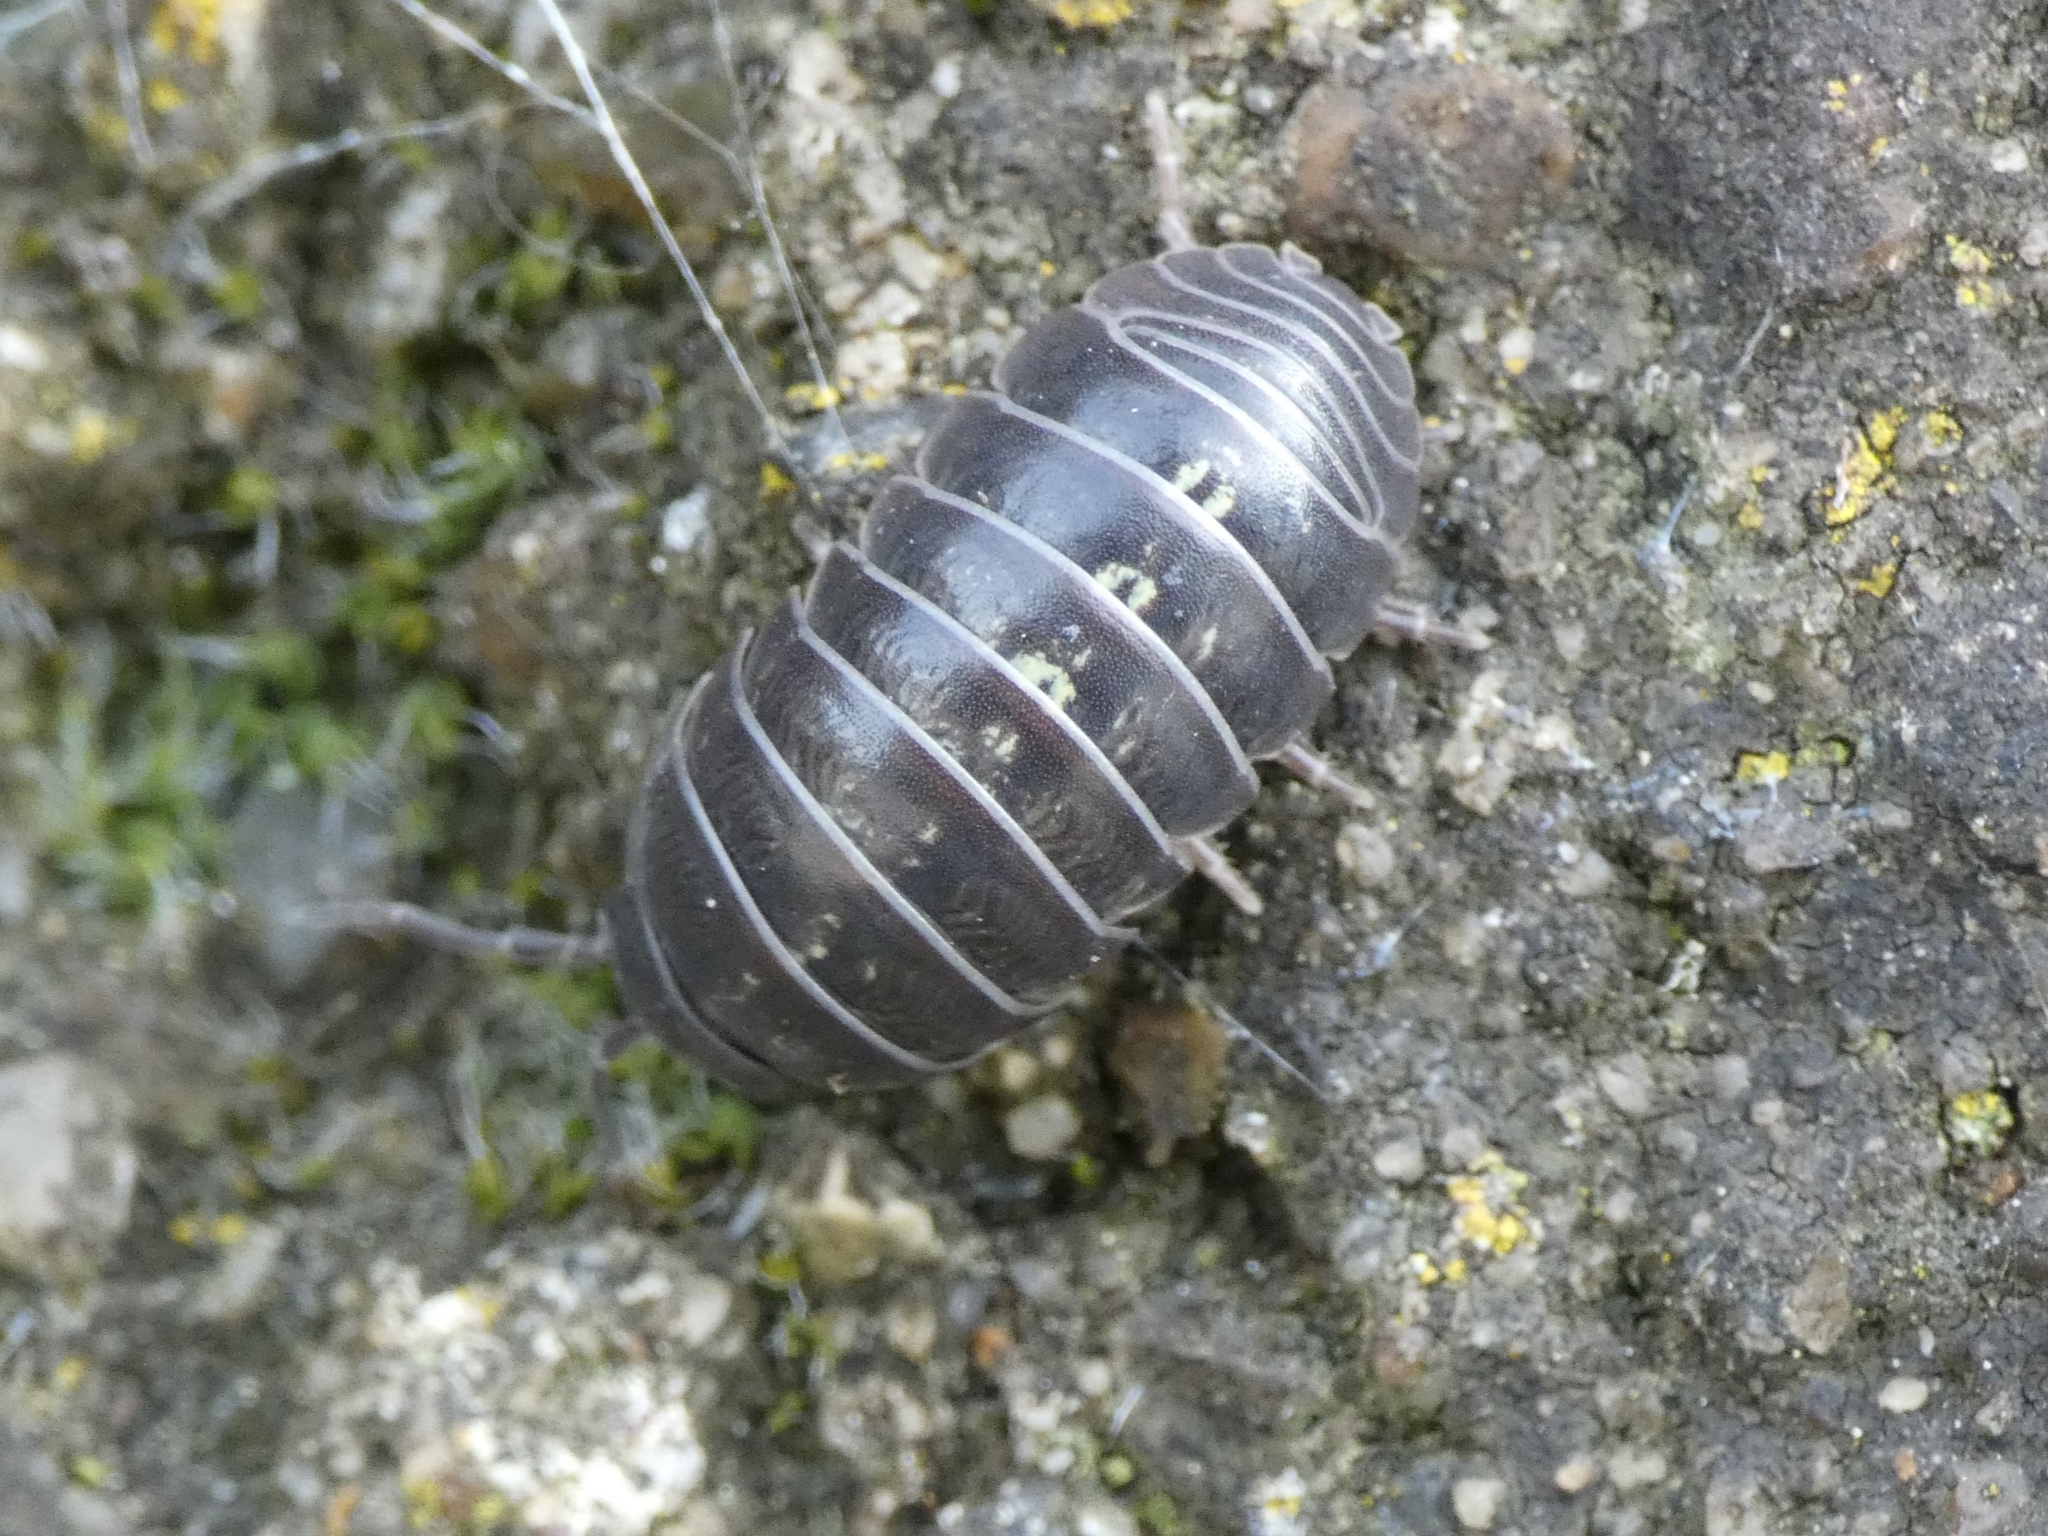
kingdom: Animalia
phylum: Arthropoda
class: Malacostraca
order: Isopoda
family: Armadillidiidae
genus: Armadillidium
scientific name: Armadillidium vulgare
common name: Common pill woodlouse
